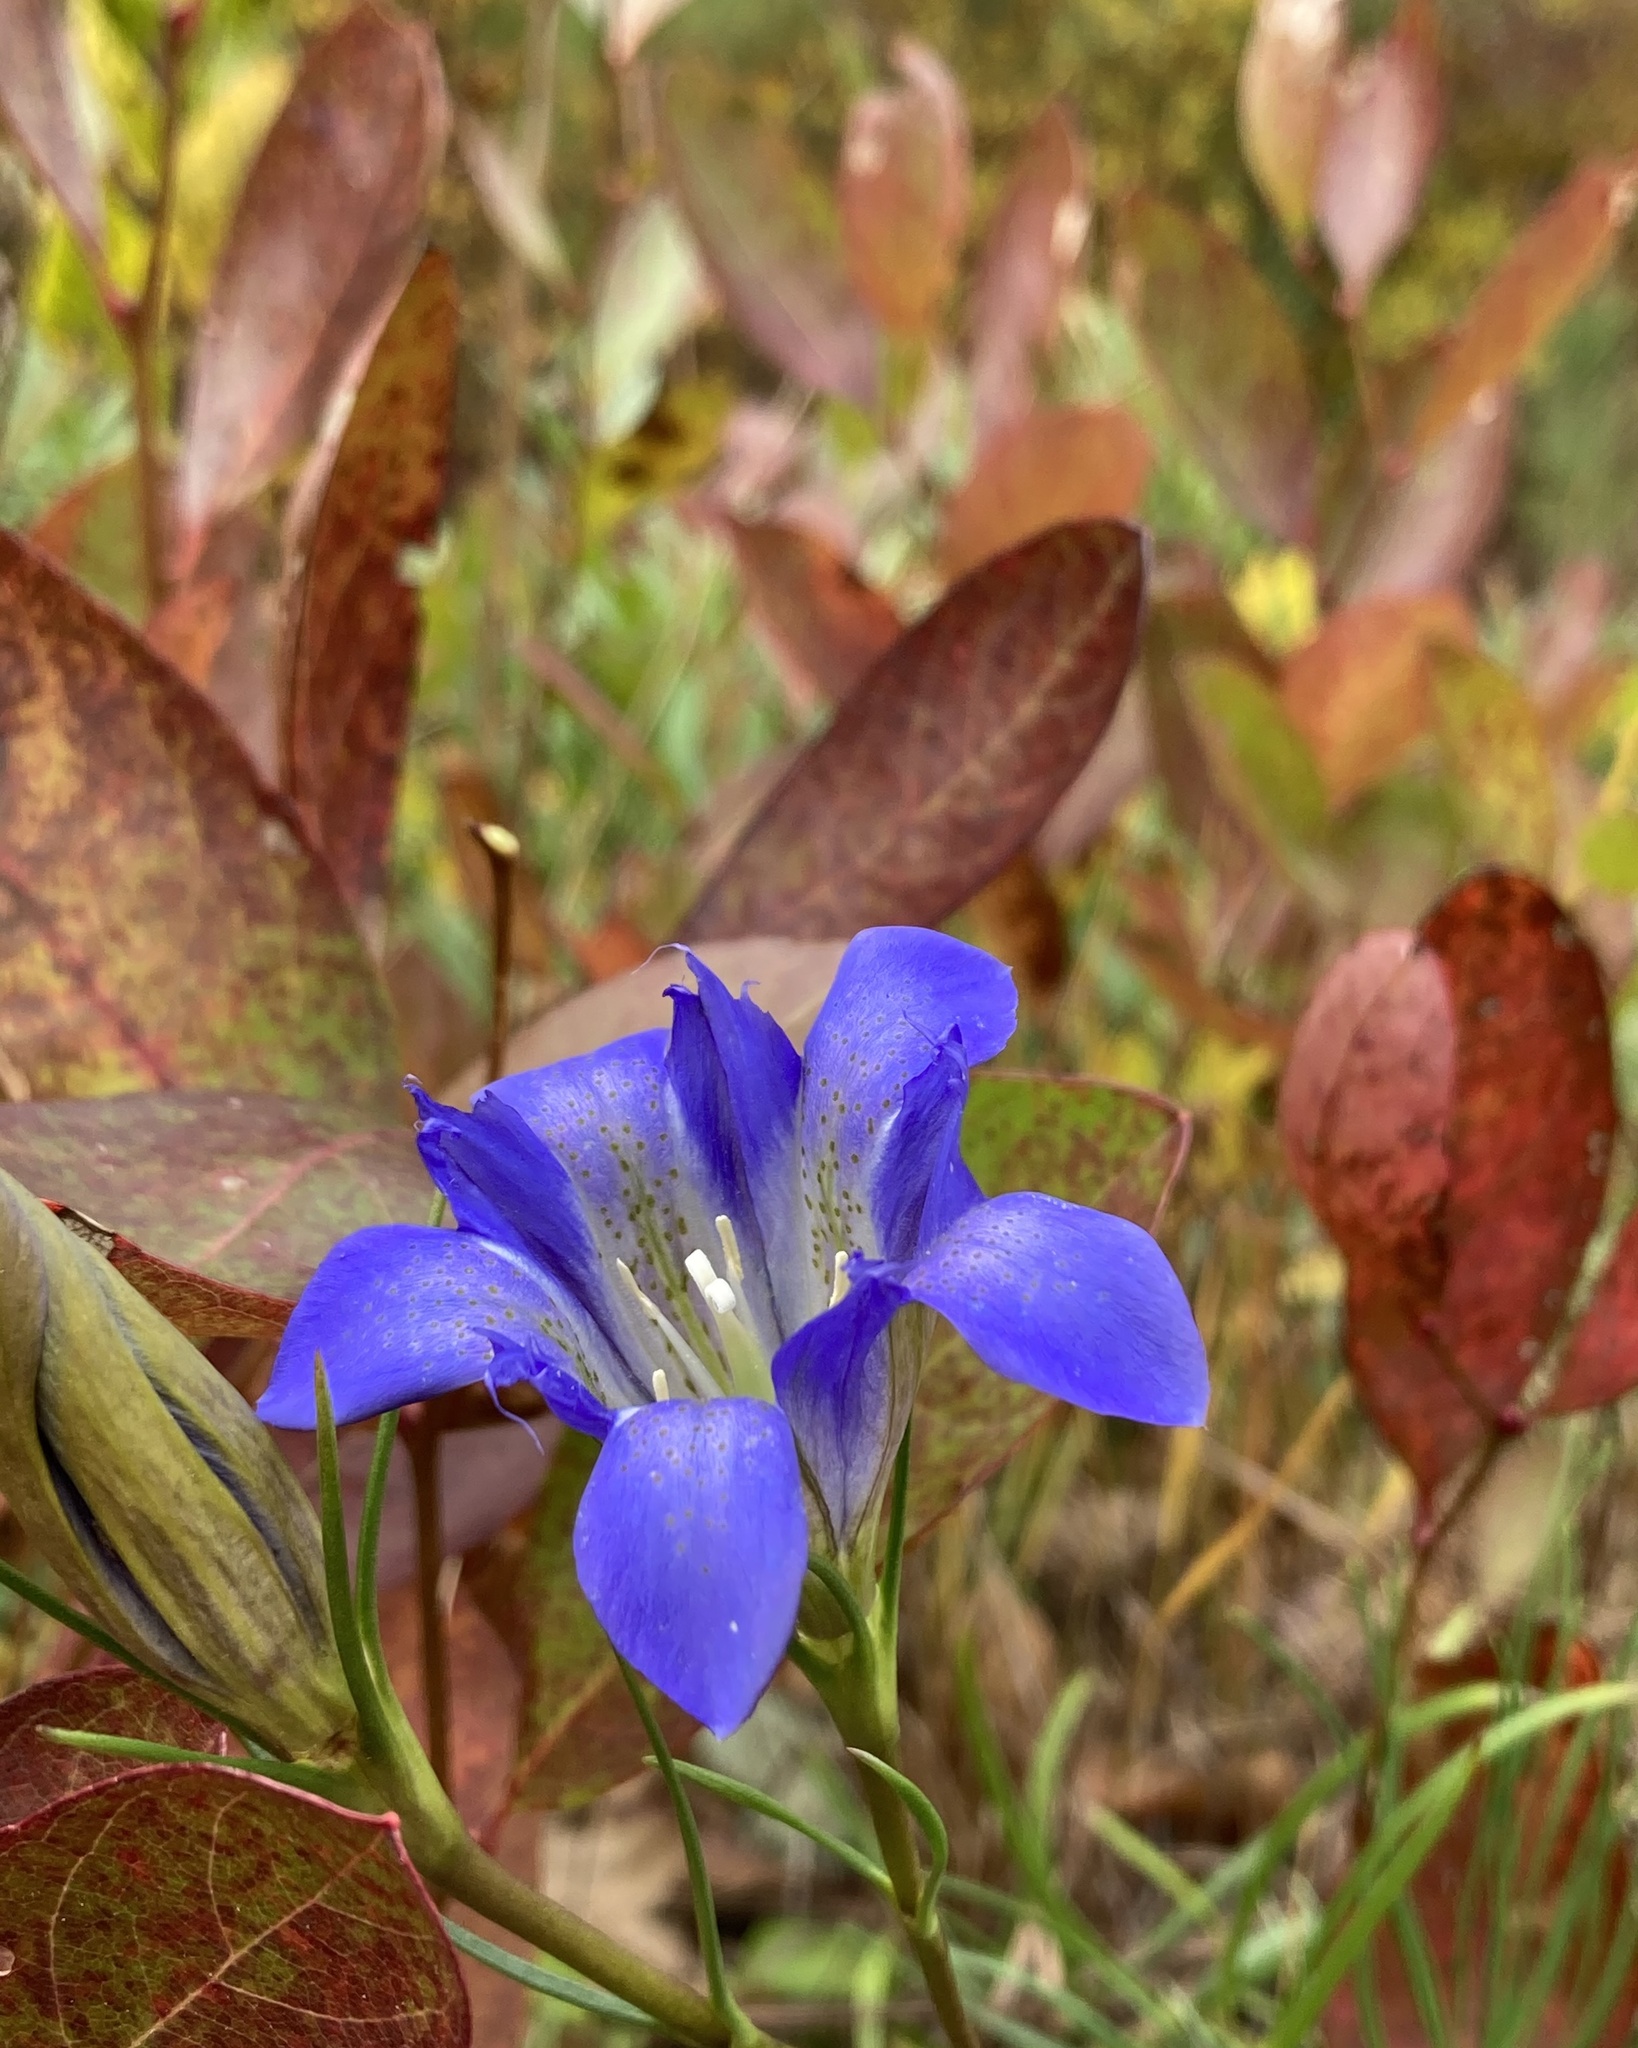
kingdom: Plantae
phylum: Tracheophyta
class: Magnoliopsida
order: Gentianales
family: Gentianaceae
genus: Gentiana
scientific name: Gentiana autumnalis
